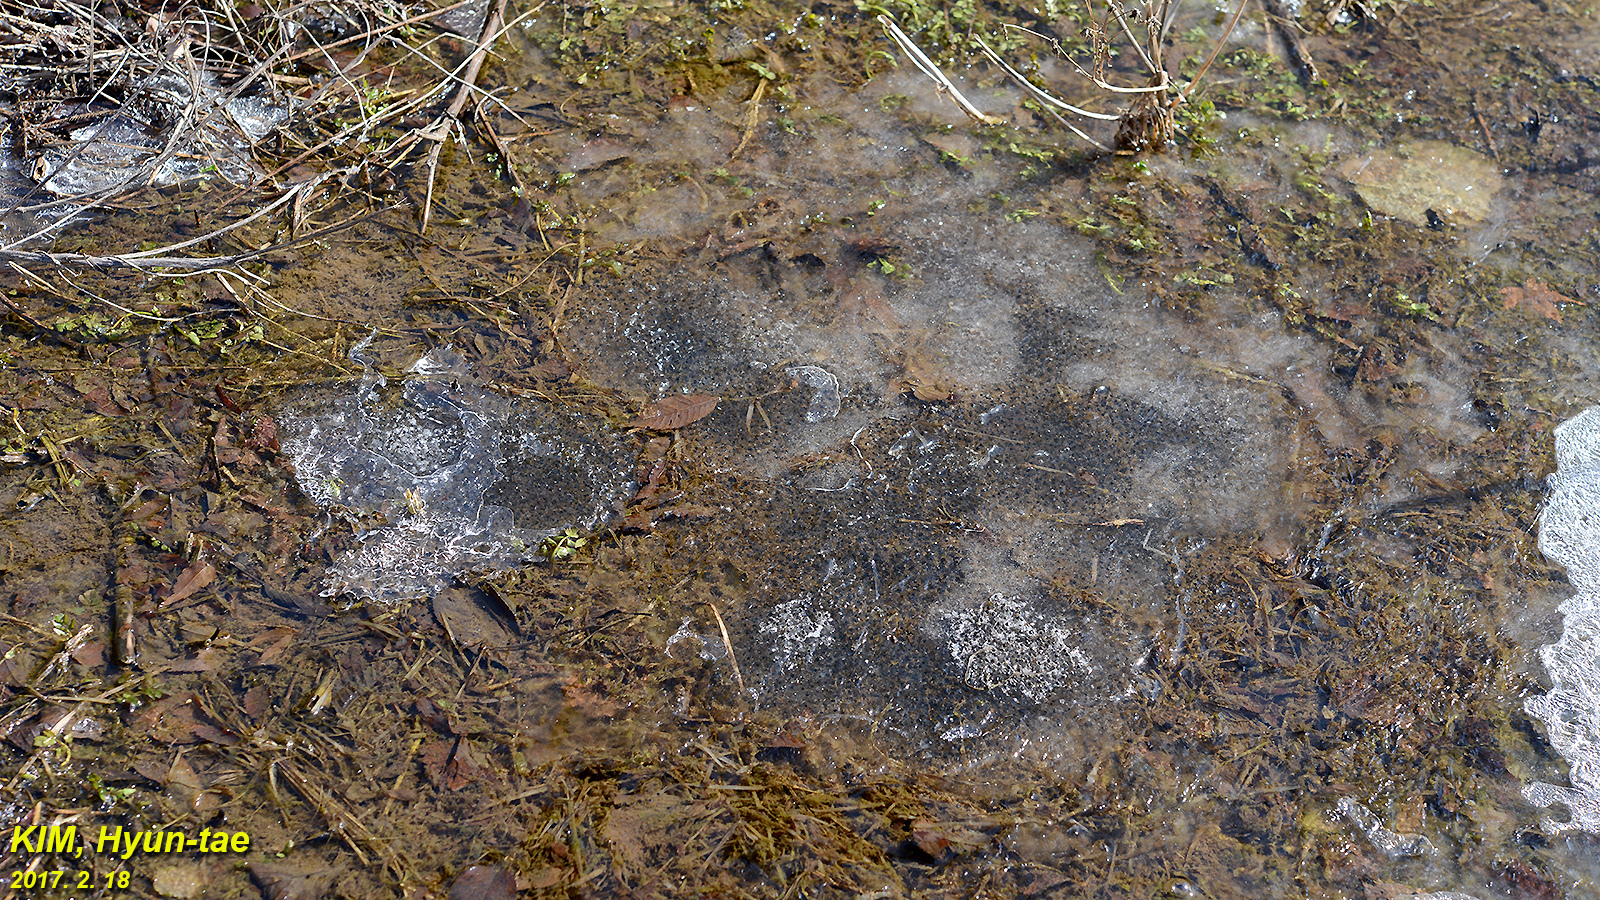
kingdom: Animalia
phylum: Chordata
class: Amphibia
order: Anura
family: Ranidae
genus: Rana
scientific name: Rana uenoi
